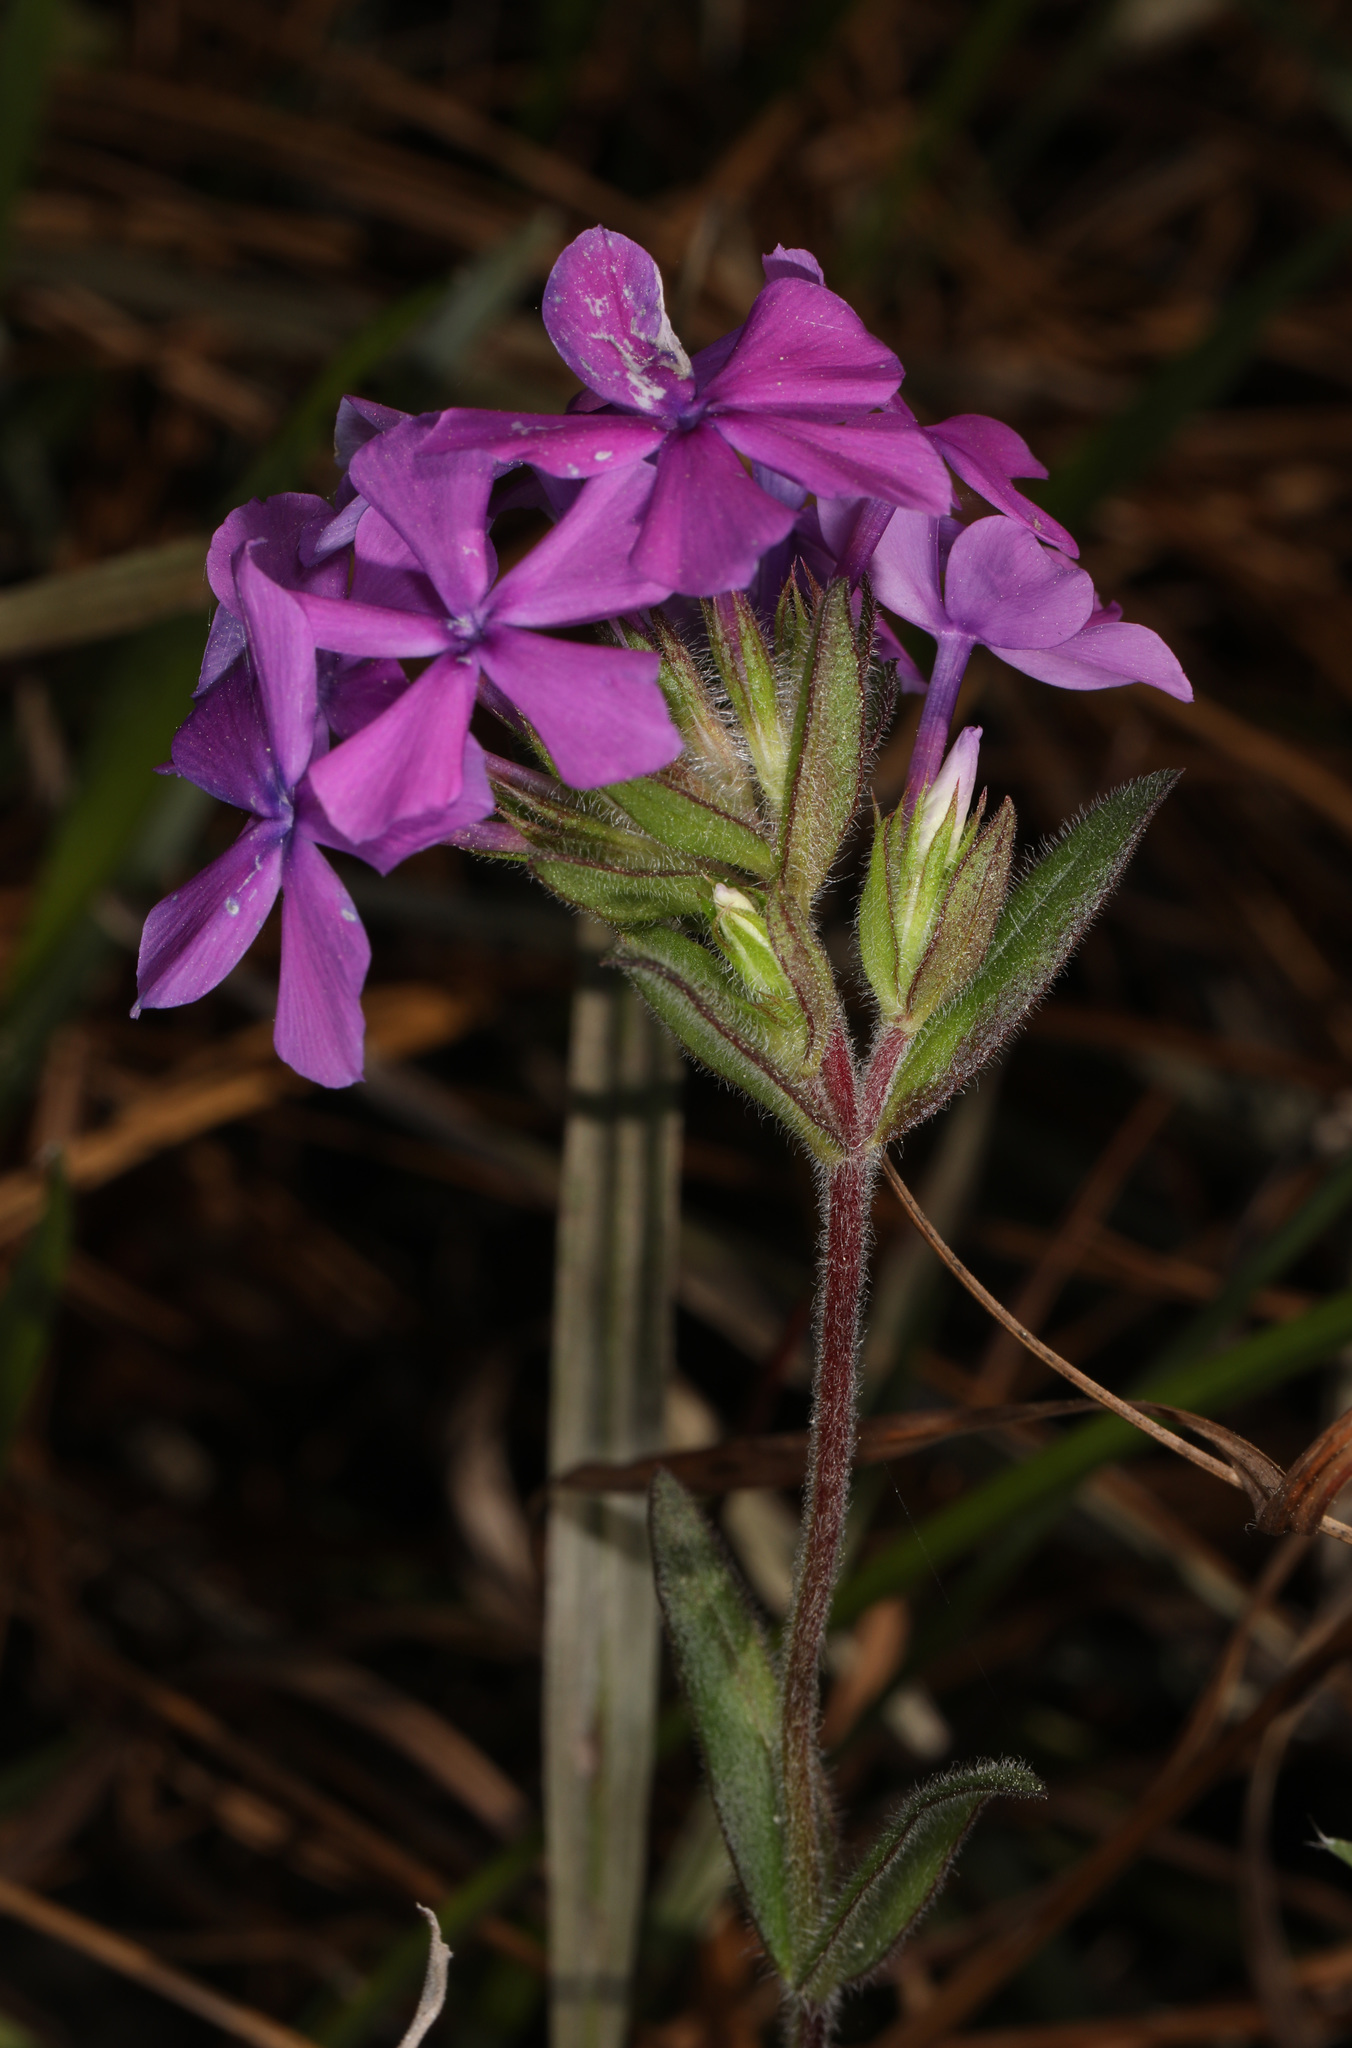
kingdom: Plantae
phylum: Tracheophyta
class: Magnoliopsida
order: Ericales
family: Polemoniaceae
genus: Phlox
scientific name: Phlox amoena
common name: Hairy phlox
